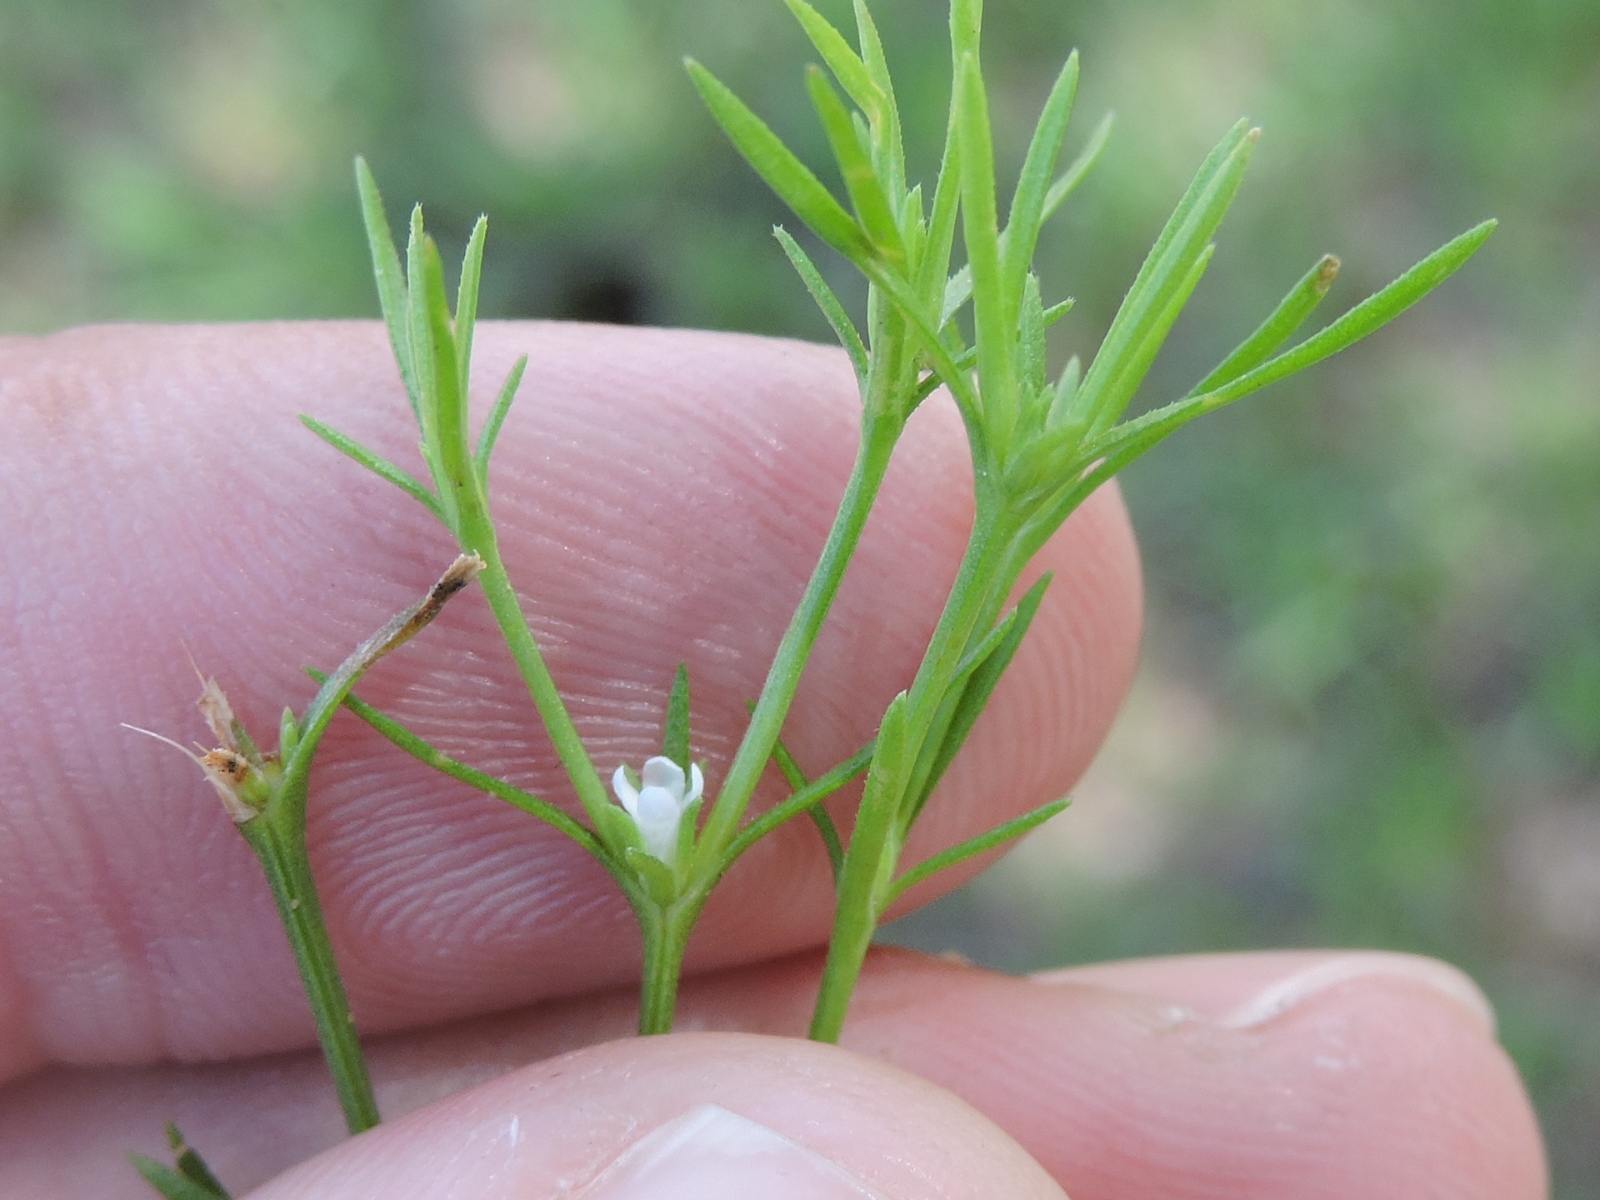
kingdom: Plantae
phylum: Tracheophyta
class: Magnoliopsida
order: Lamiales
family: Tetrachondraceae
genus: Polypremum
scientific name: Polypremum procumbens
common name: Juniper-leaf
